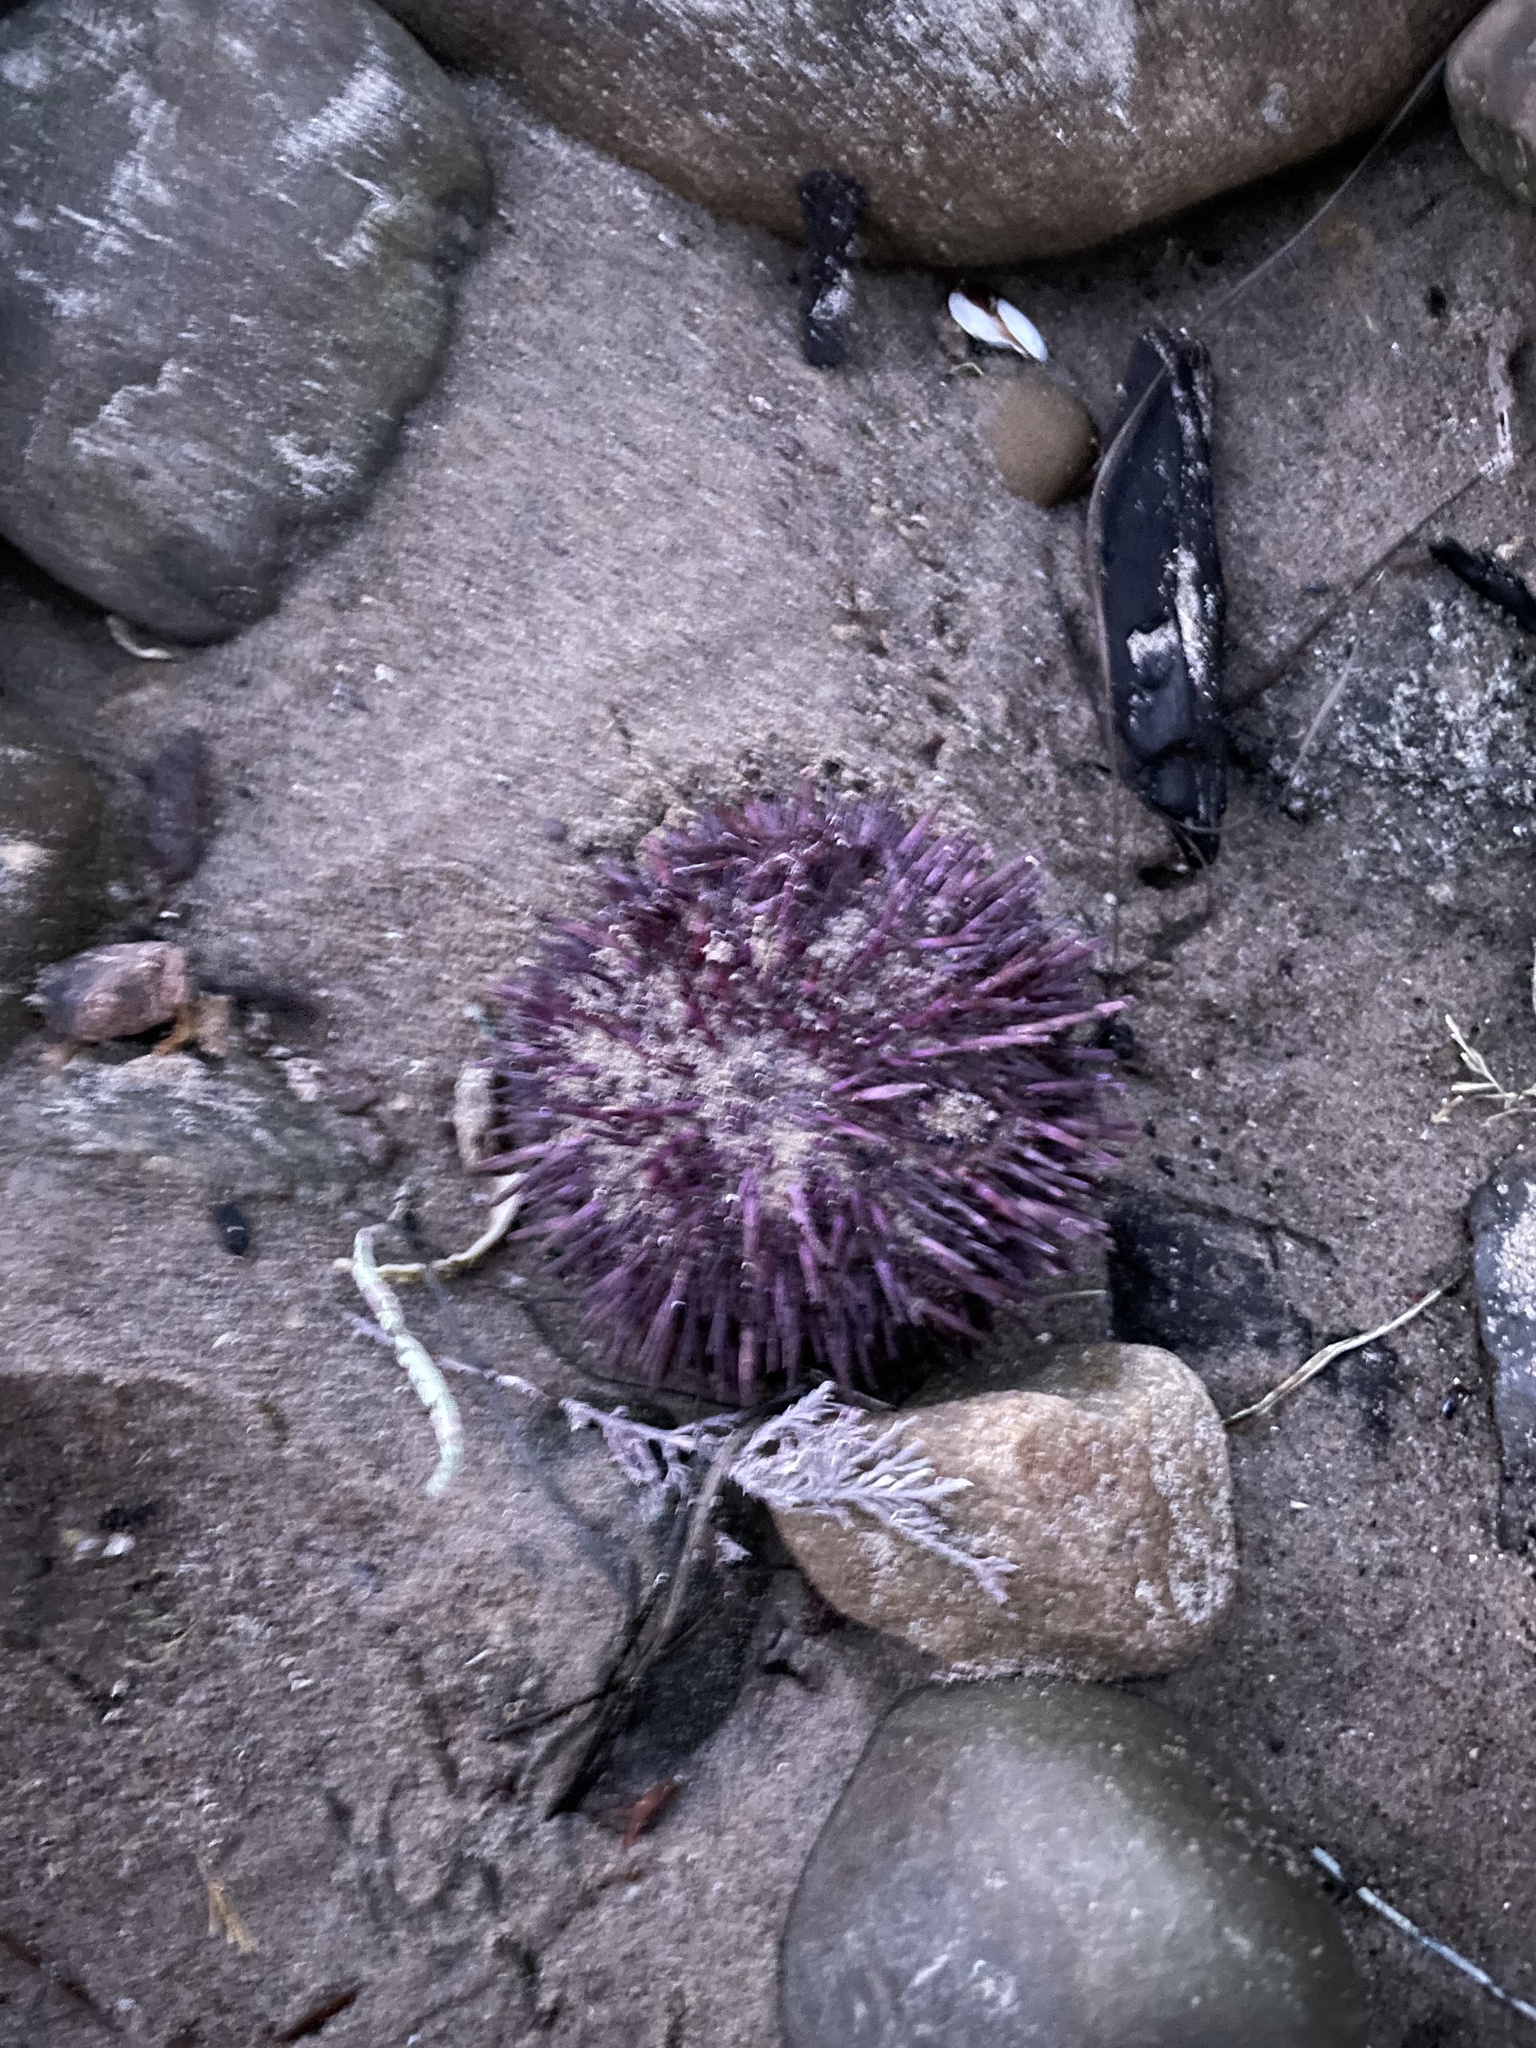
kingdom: Animalia
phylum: Echinodermata
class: Echinoidea
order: Camarodonta
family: Strongylocentrotidae
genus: Strongylocentrotus
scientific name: Strongylocentrotus purpuratus
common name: Purple sea urchin
